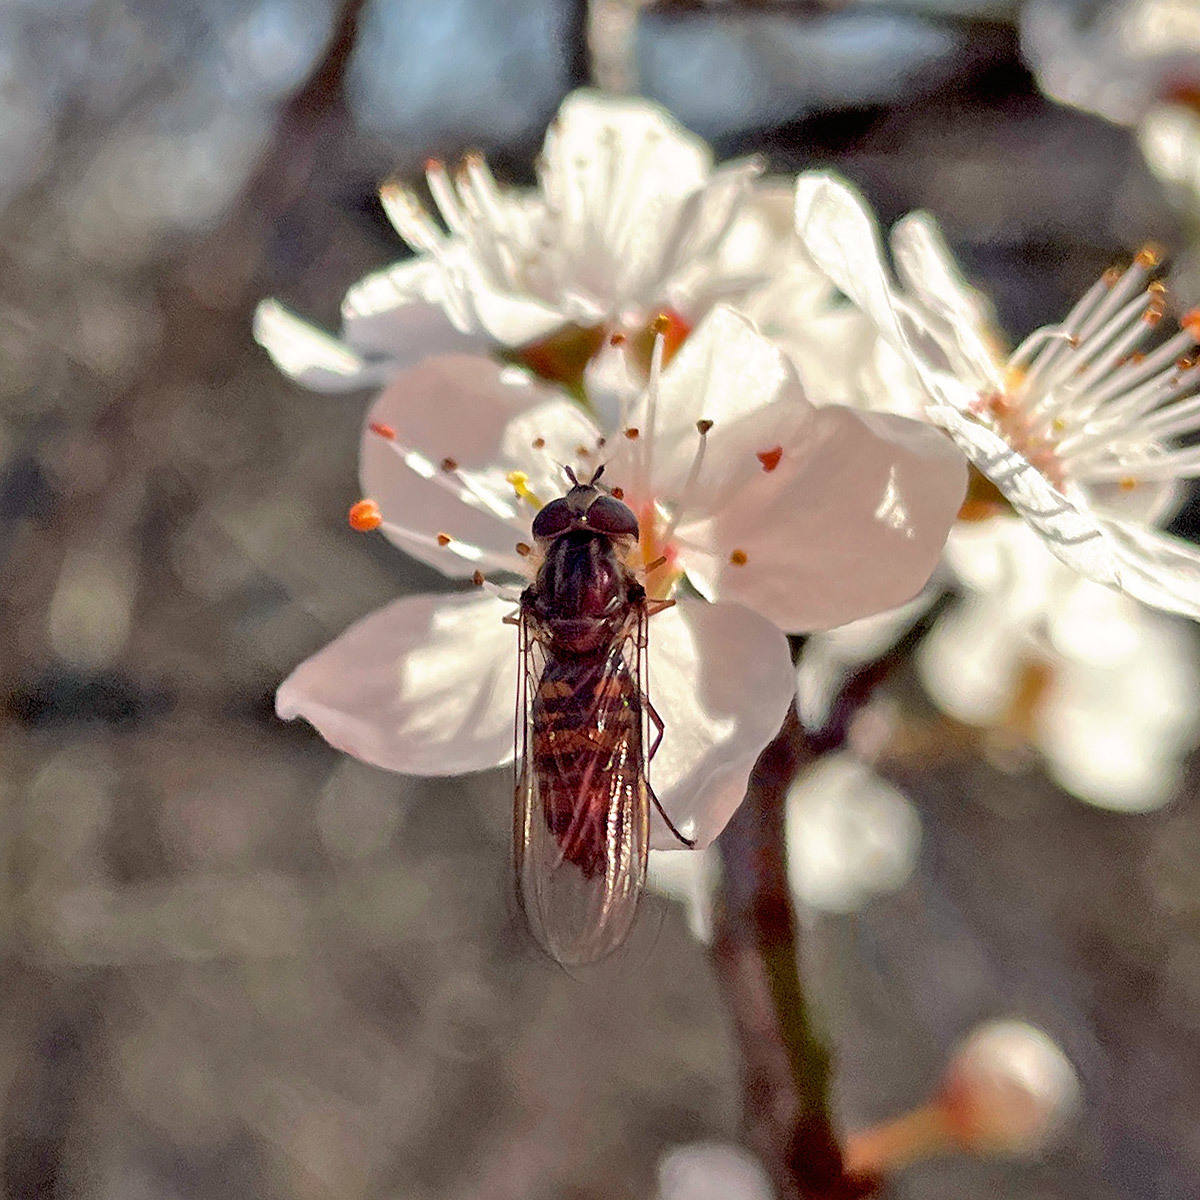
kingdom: Animalia
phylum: Arthropoda
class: Insecta
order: Diptera
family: Syrphidae
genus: Episyrphus
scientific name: Episyrphus balteatus
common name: Marmalade hoverfly
